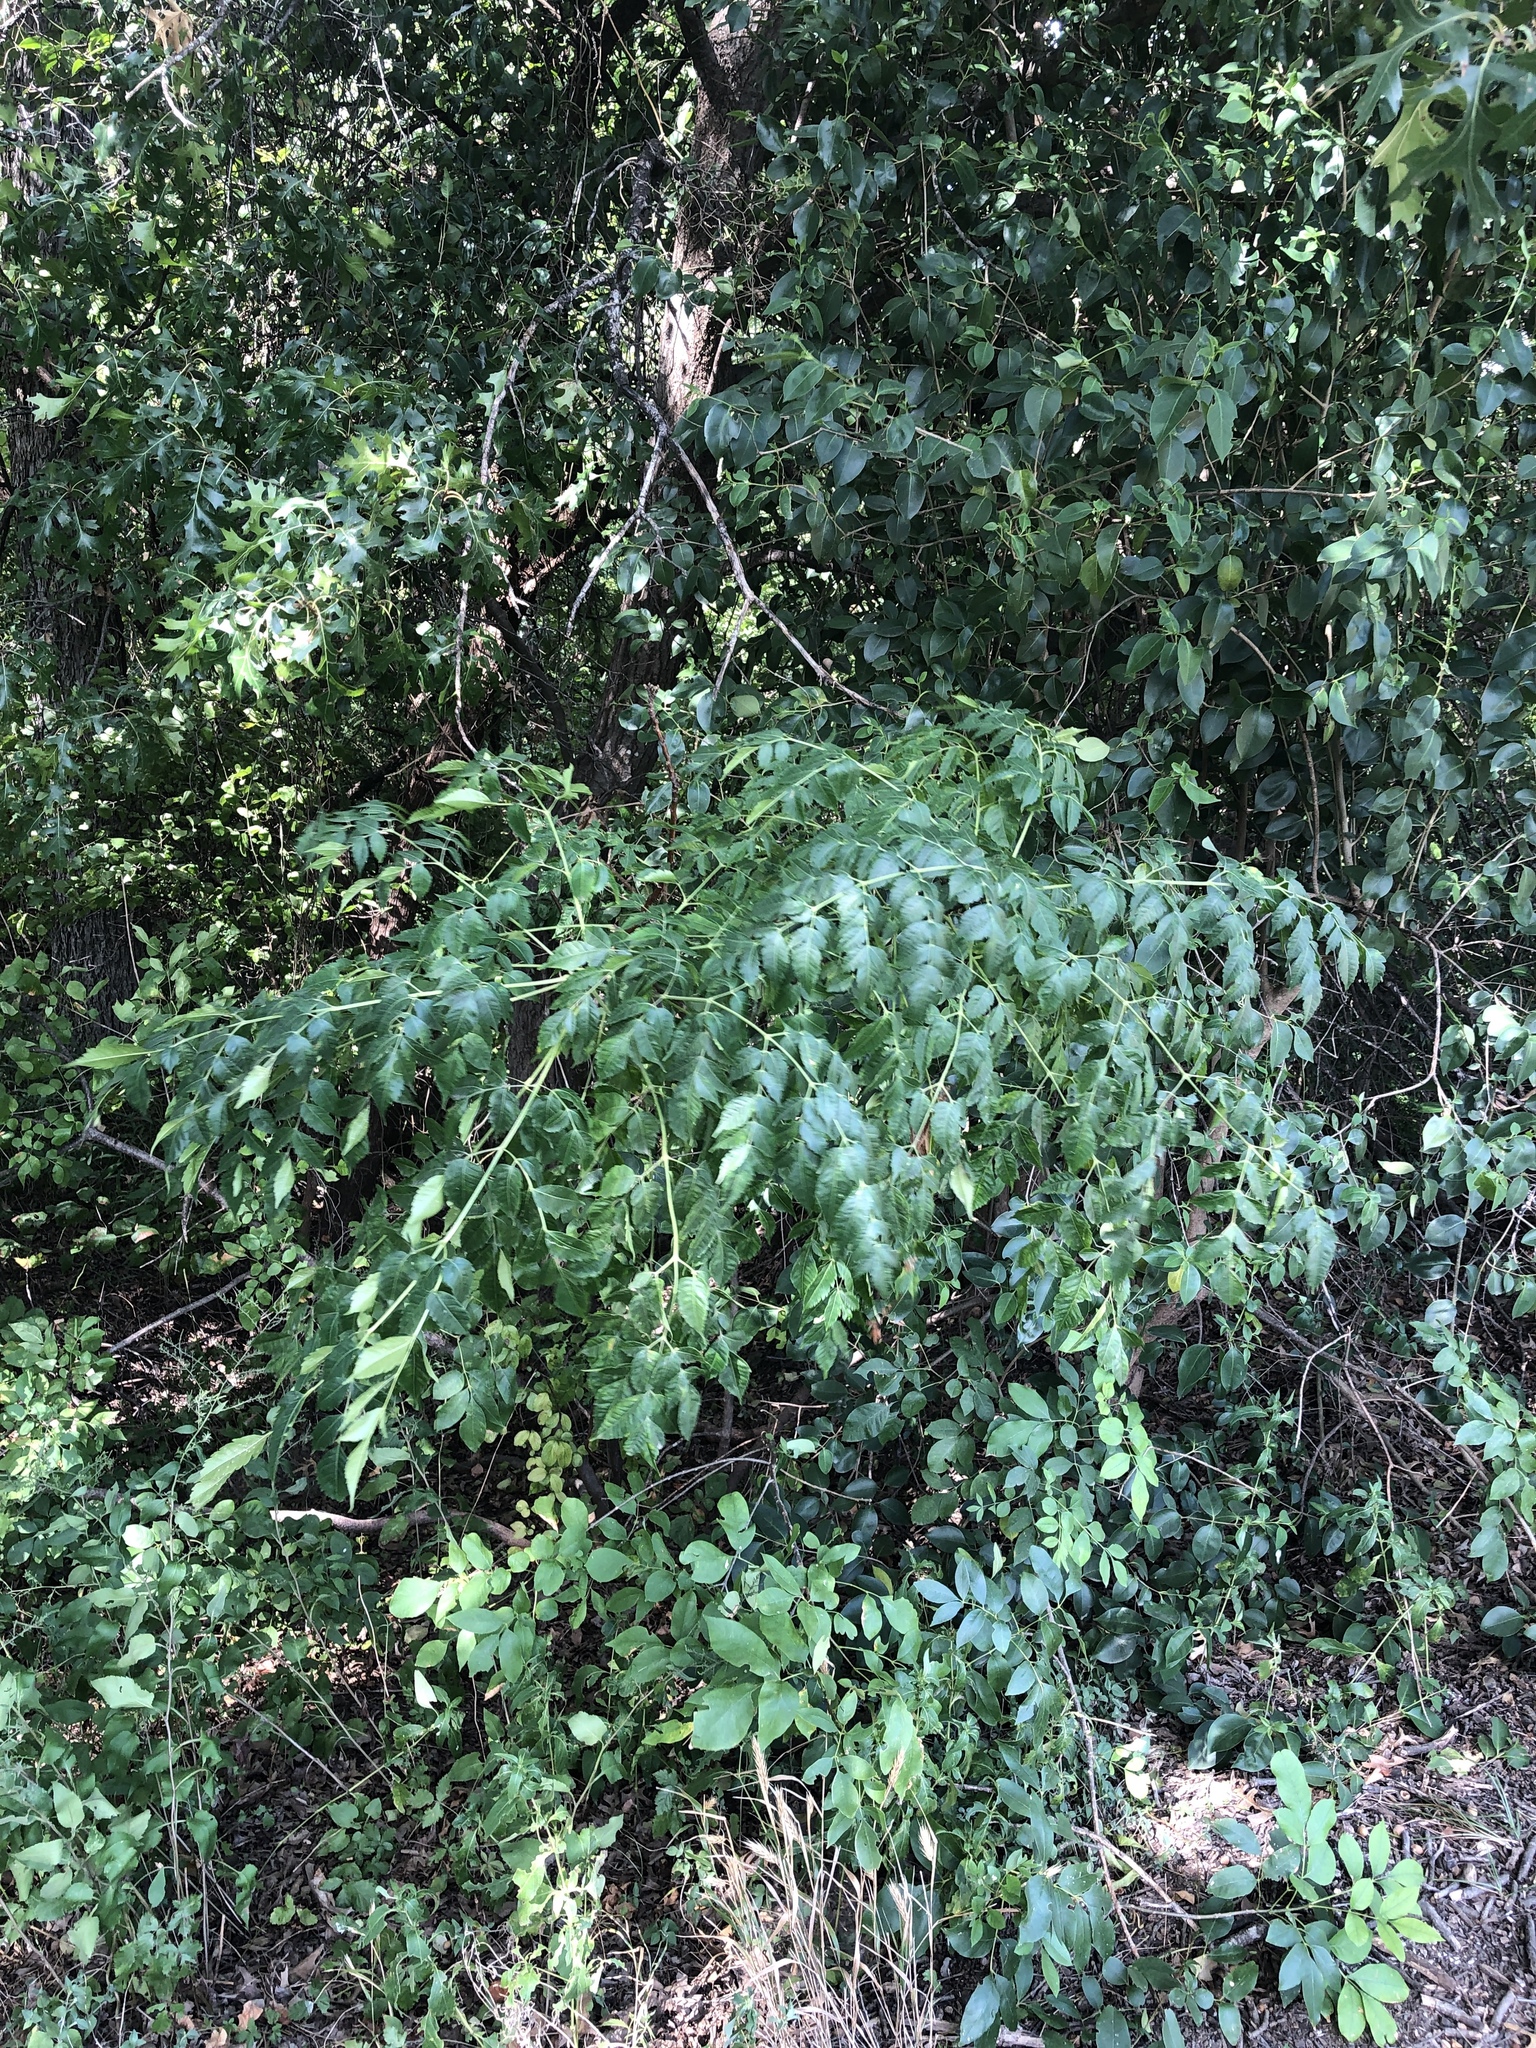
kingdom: Plantae
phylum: Tracheophyta
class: Magnoliopsida
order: Sapindales
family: Meliaceae
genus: Melia
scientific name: Melia azedarach
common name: Chinaberrytree
